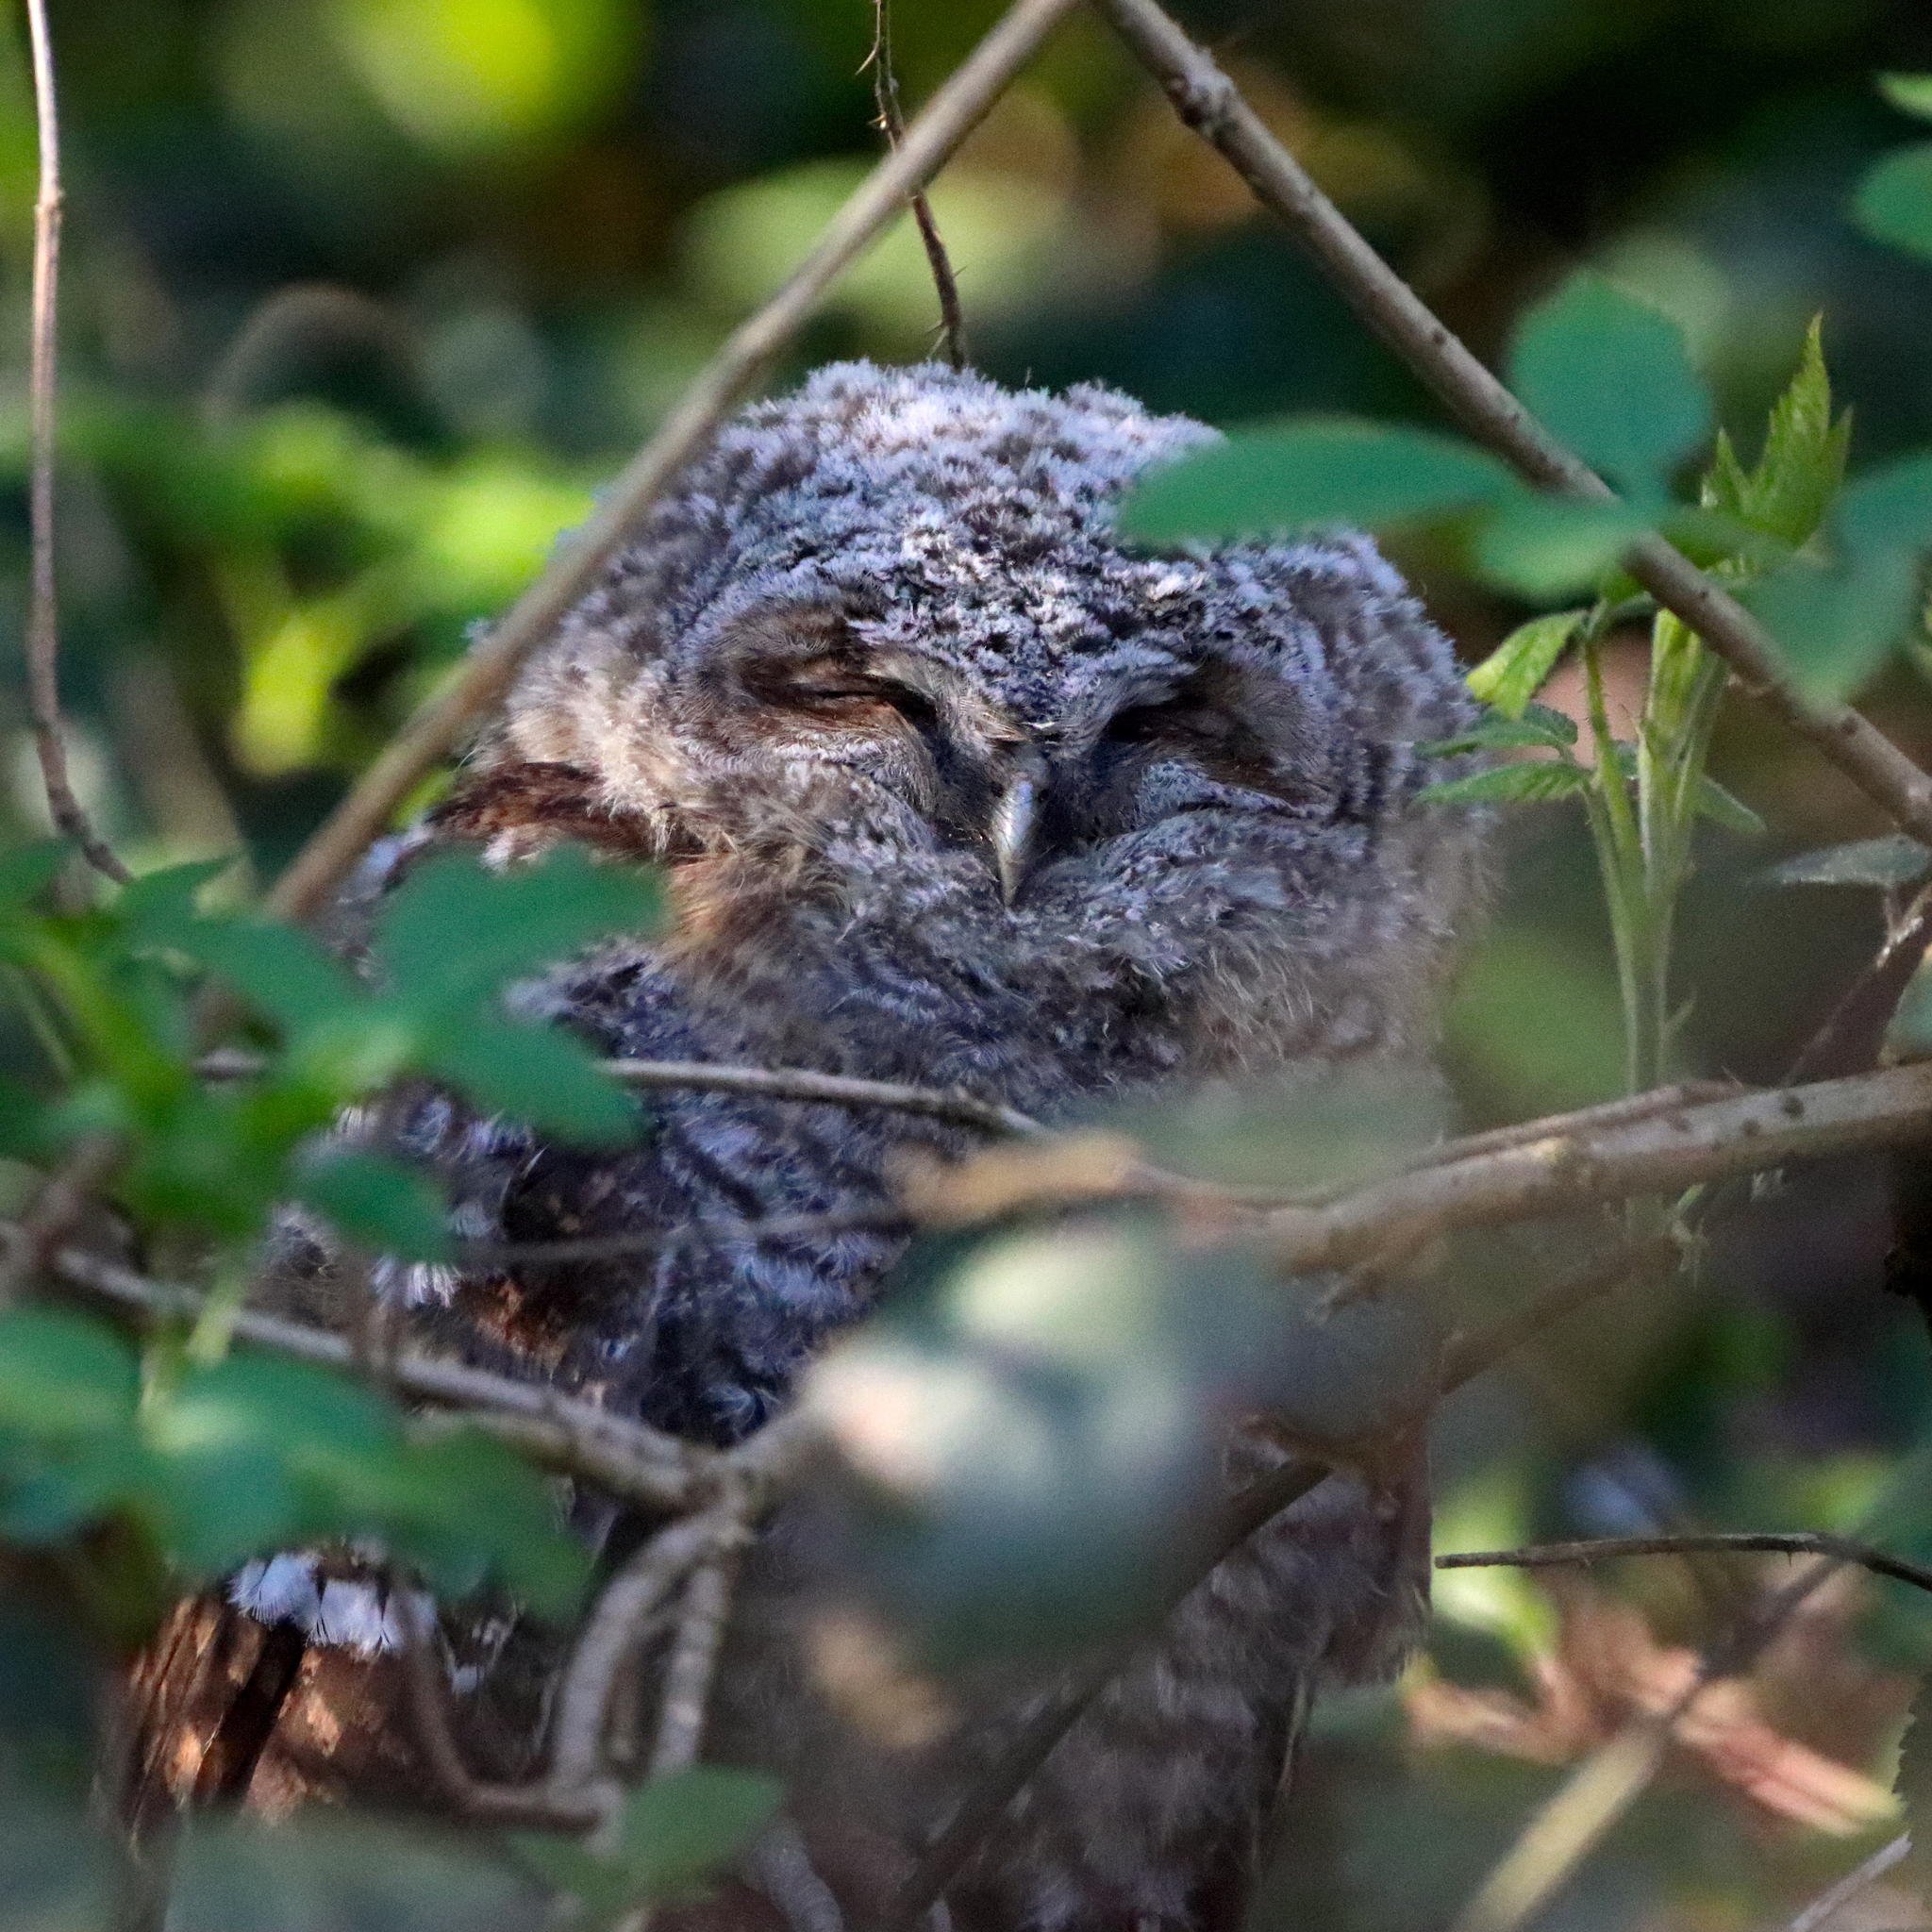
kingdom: Animalia
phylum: Chordata
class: Aves
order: Strigiformes
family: Strigidae
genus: Strix
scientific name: Strix aluco
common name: Tawny owl
